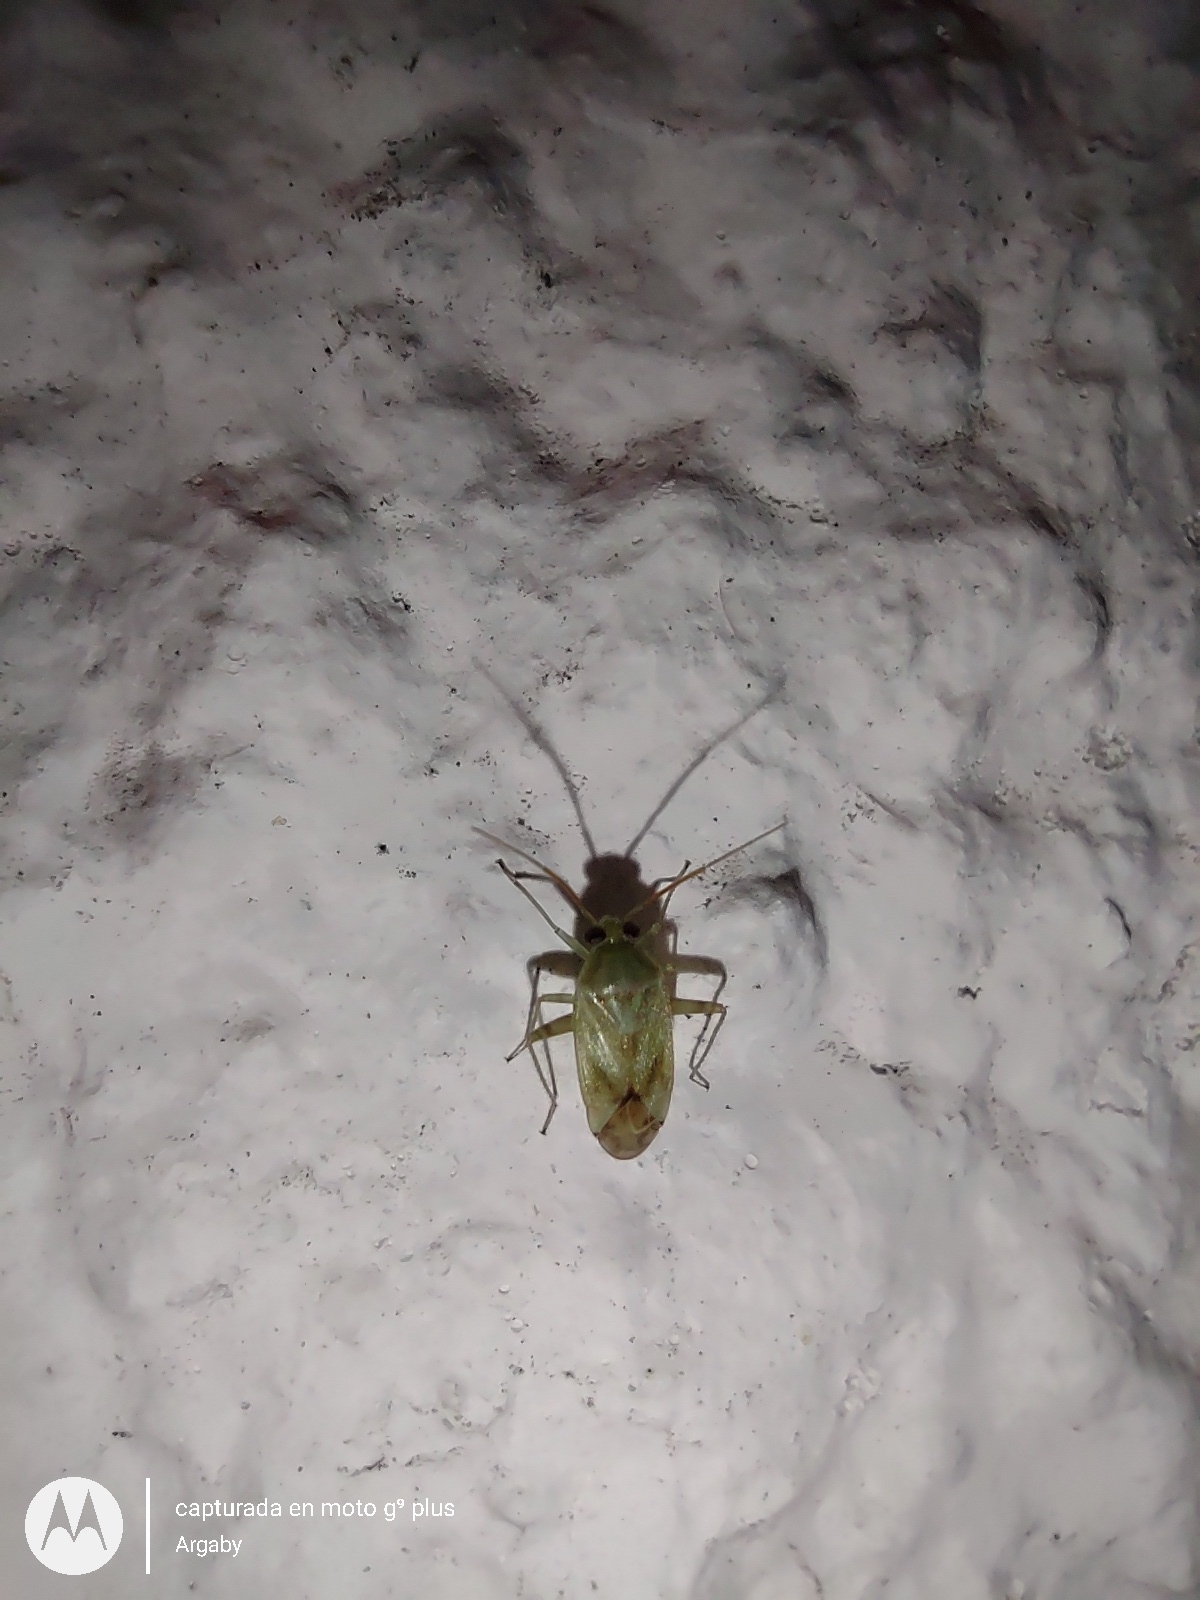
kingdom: Animalia
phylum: Arthropoda
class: Insecta
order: Hemiptera
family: Miridae
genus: Taylorilygus
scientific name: Taylorilygus apicalis
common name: Plant bug
